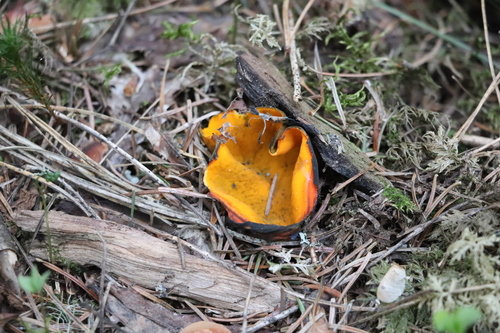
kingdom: Fungi
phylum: Ascomycota
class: Pezizomycetes
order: Pezizales
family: Caloscyphaceae
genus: Caloscypha
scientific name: Caloscypha fulgens
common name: Golden cup
